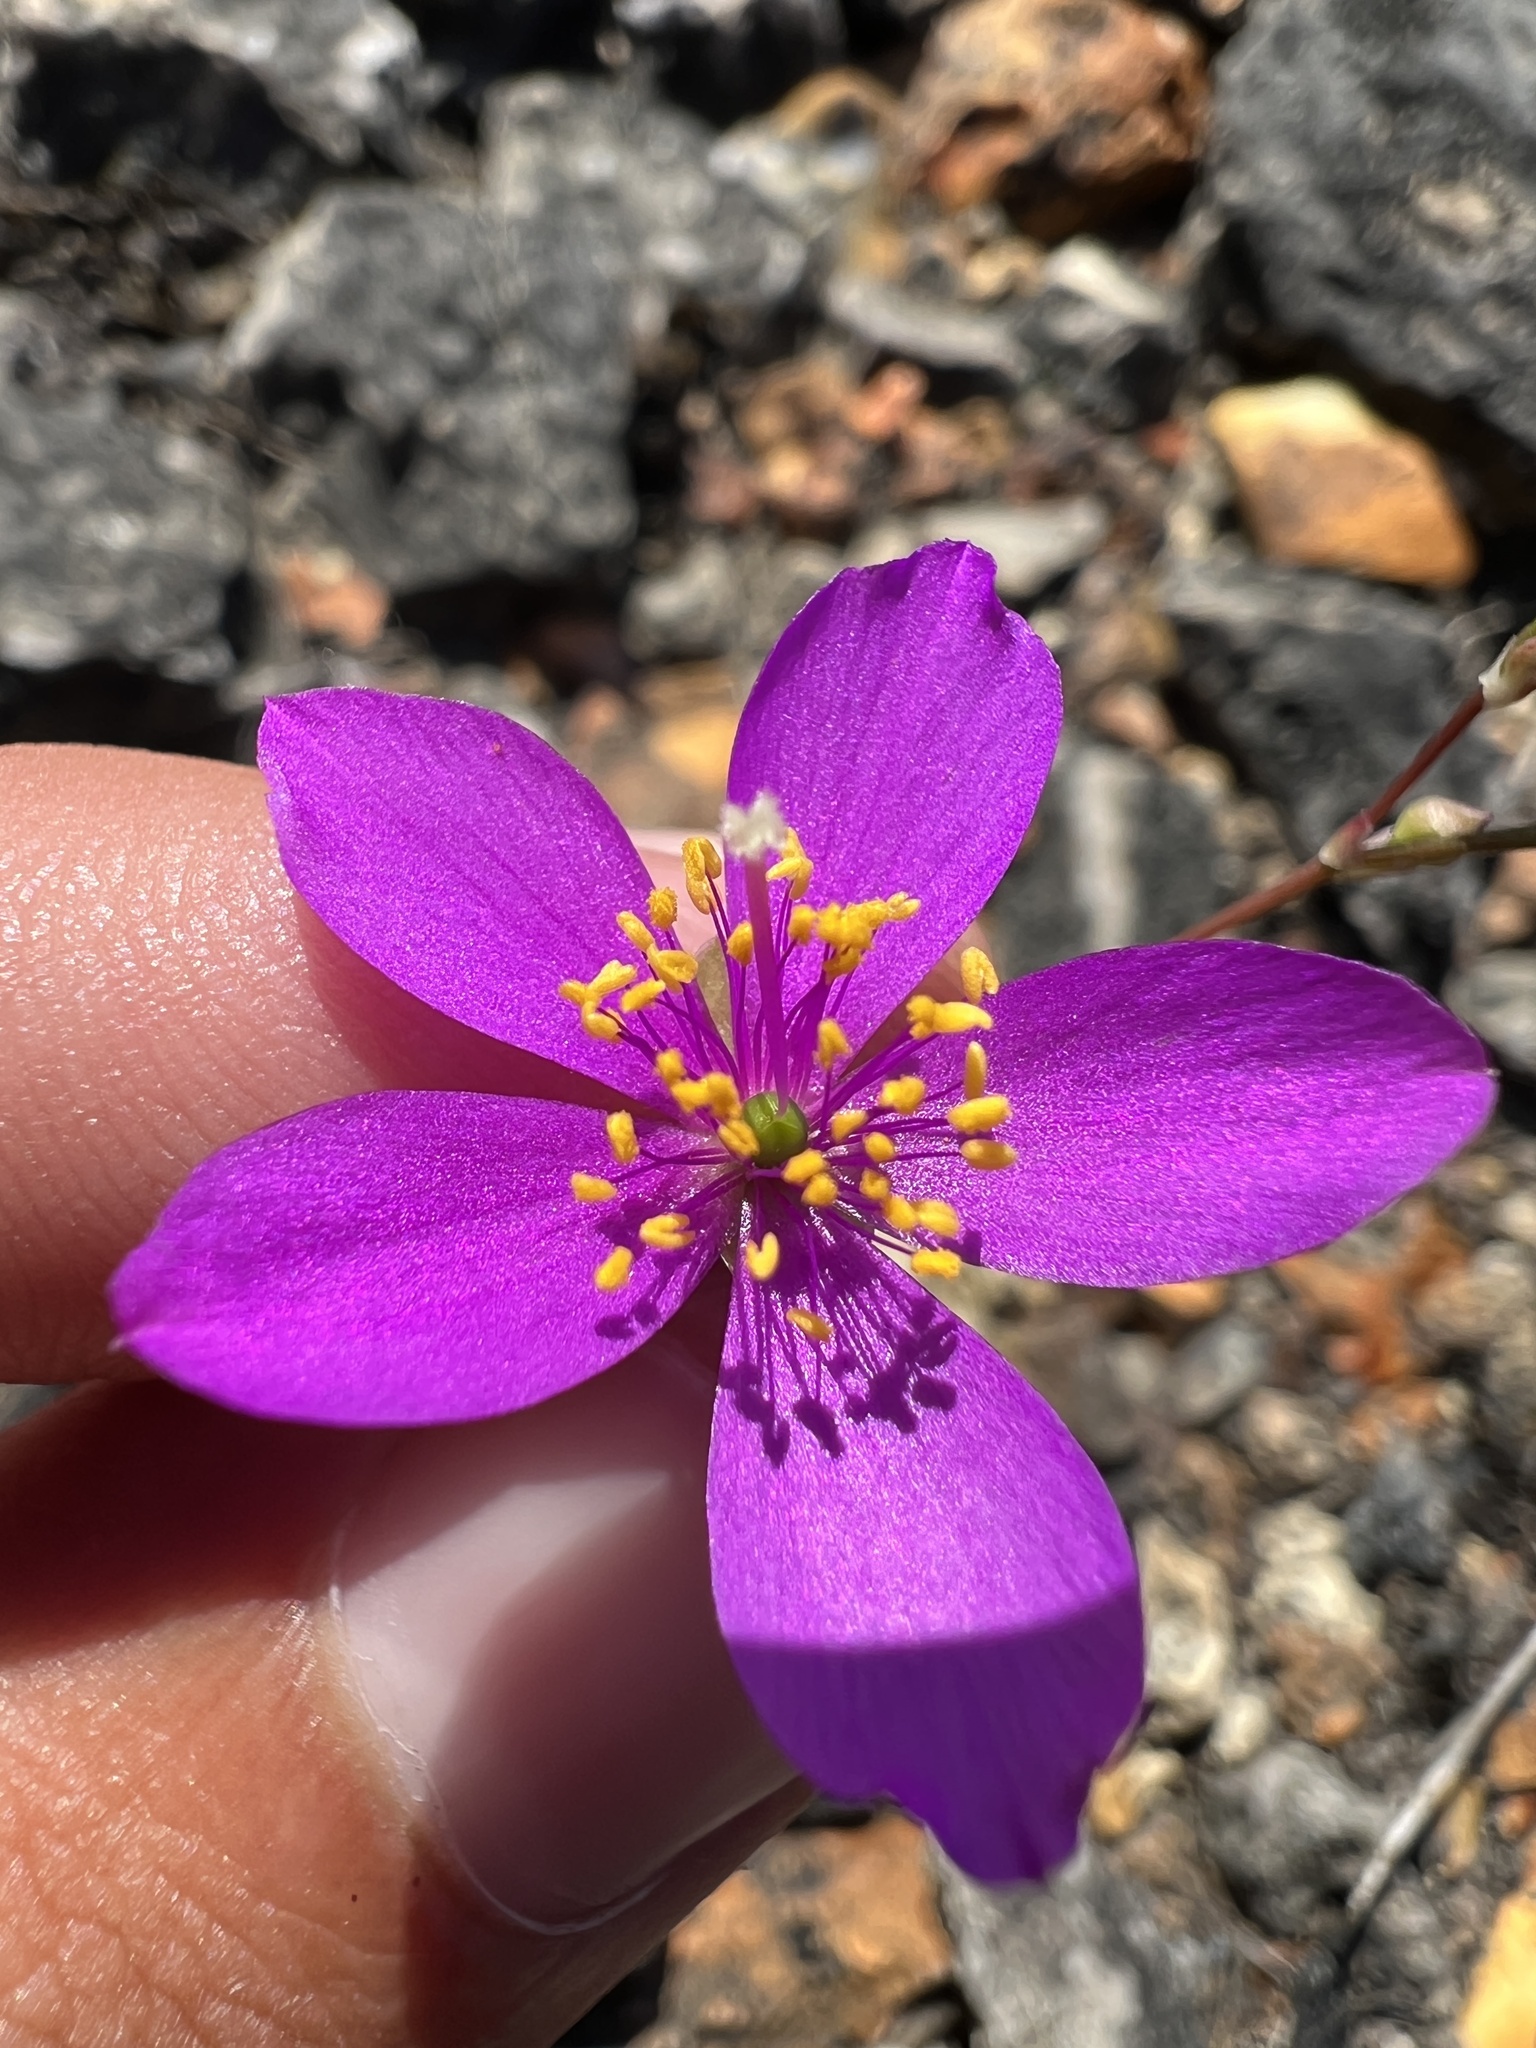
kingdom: Plantae
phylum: Tracheophyta
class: Magnoliopsida
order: Caryophyllales
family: Montiaceae
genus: Phemeranthus
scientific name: Phemeranthus calycinus
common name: Largeflower fameflower
